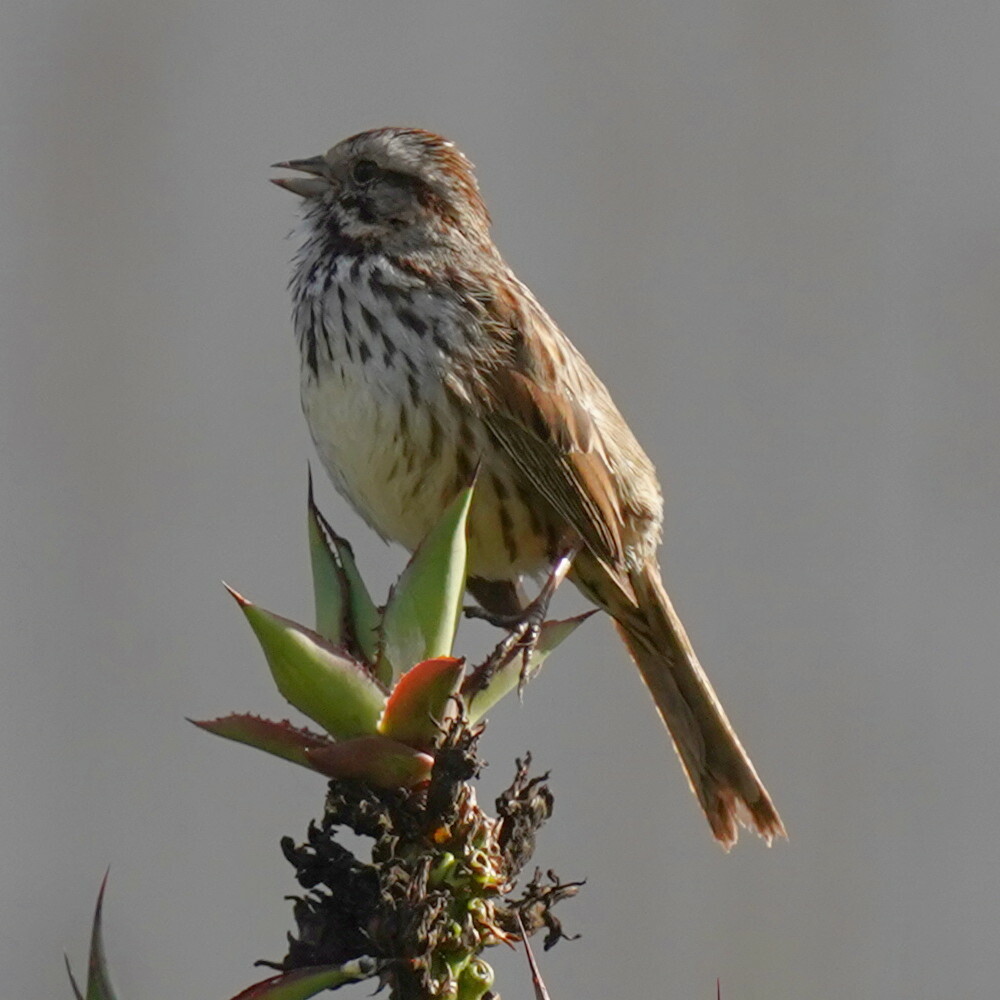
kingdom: Animalia
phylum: Chordata
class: Aves
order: Passeriformes
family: Passerellidae
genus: Melospiza
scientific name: Melospiza melodia
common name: Song sparrow
